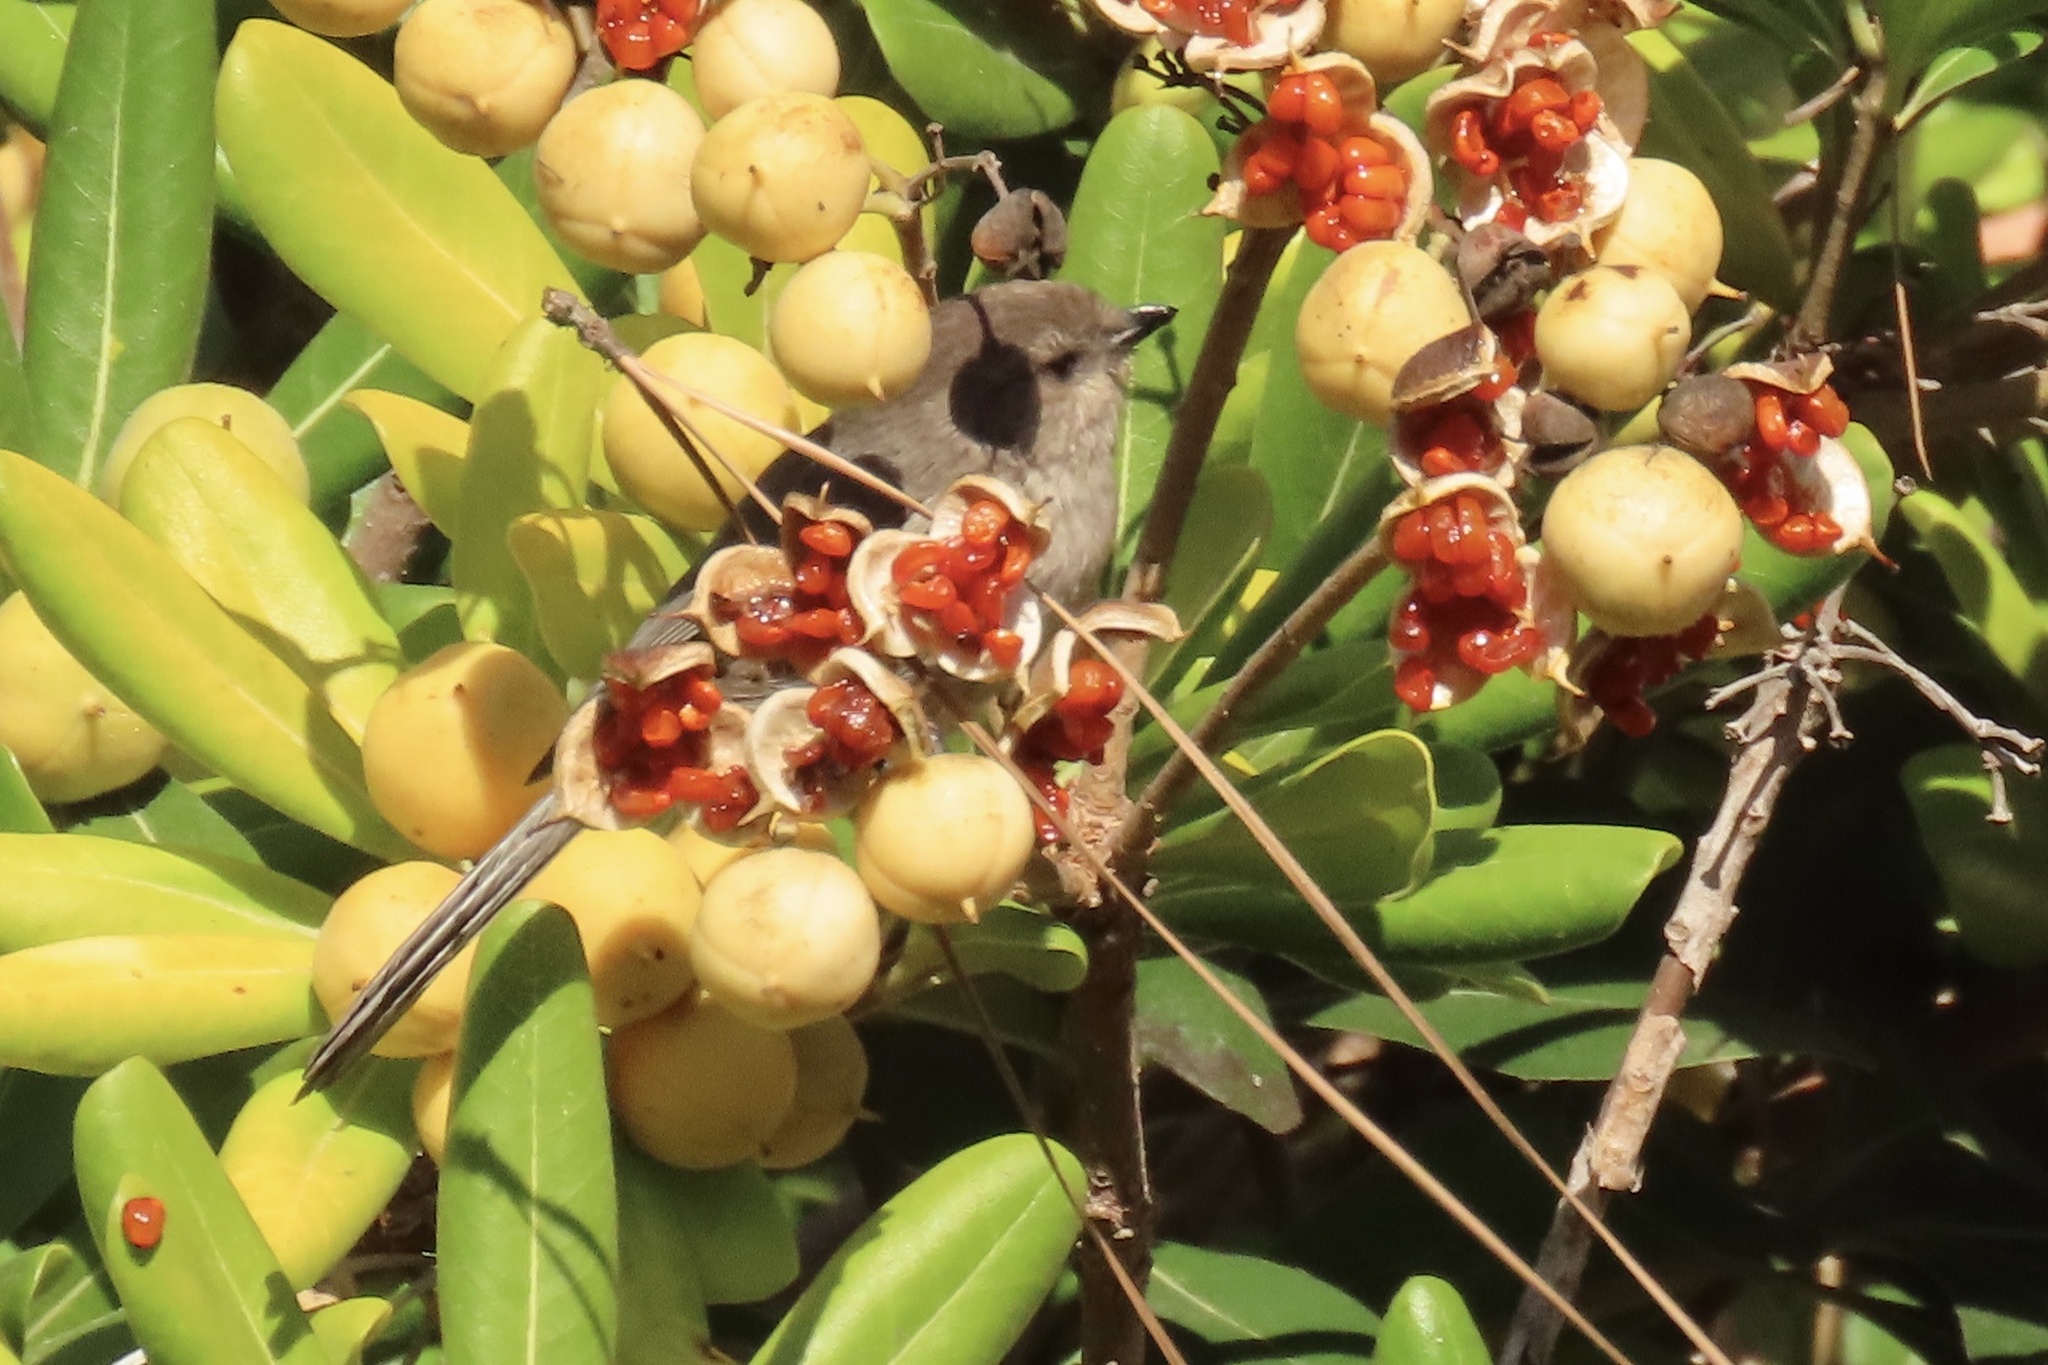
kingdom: Animalia
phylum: Chordata
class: Aves
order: Passeriformes
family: Aegithalidae
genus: Psaltriparus
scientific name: Psaltriparus minimus
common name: American bushtit
